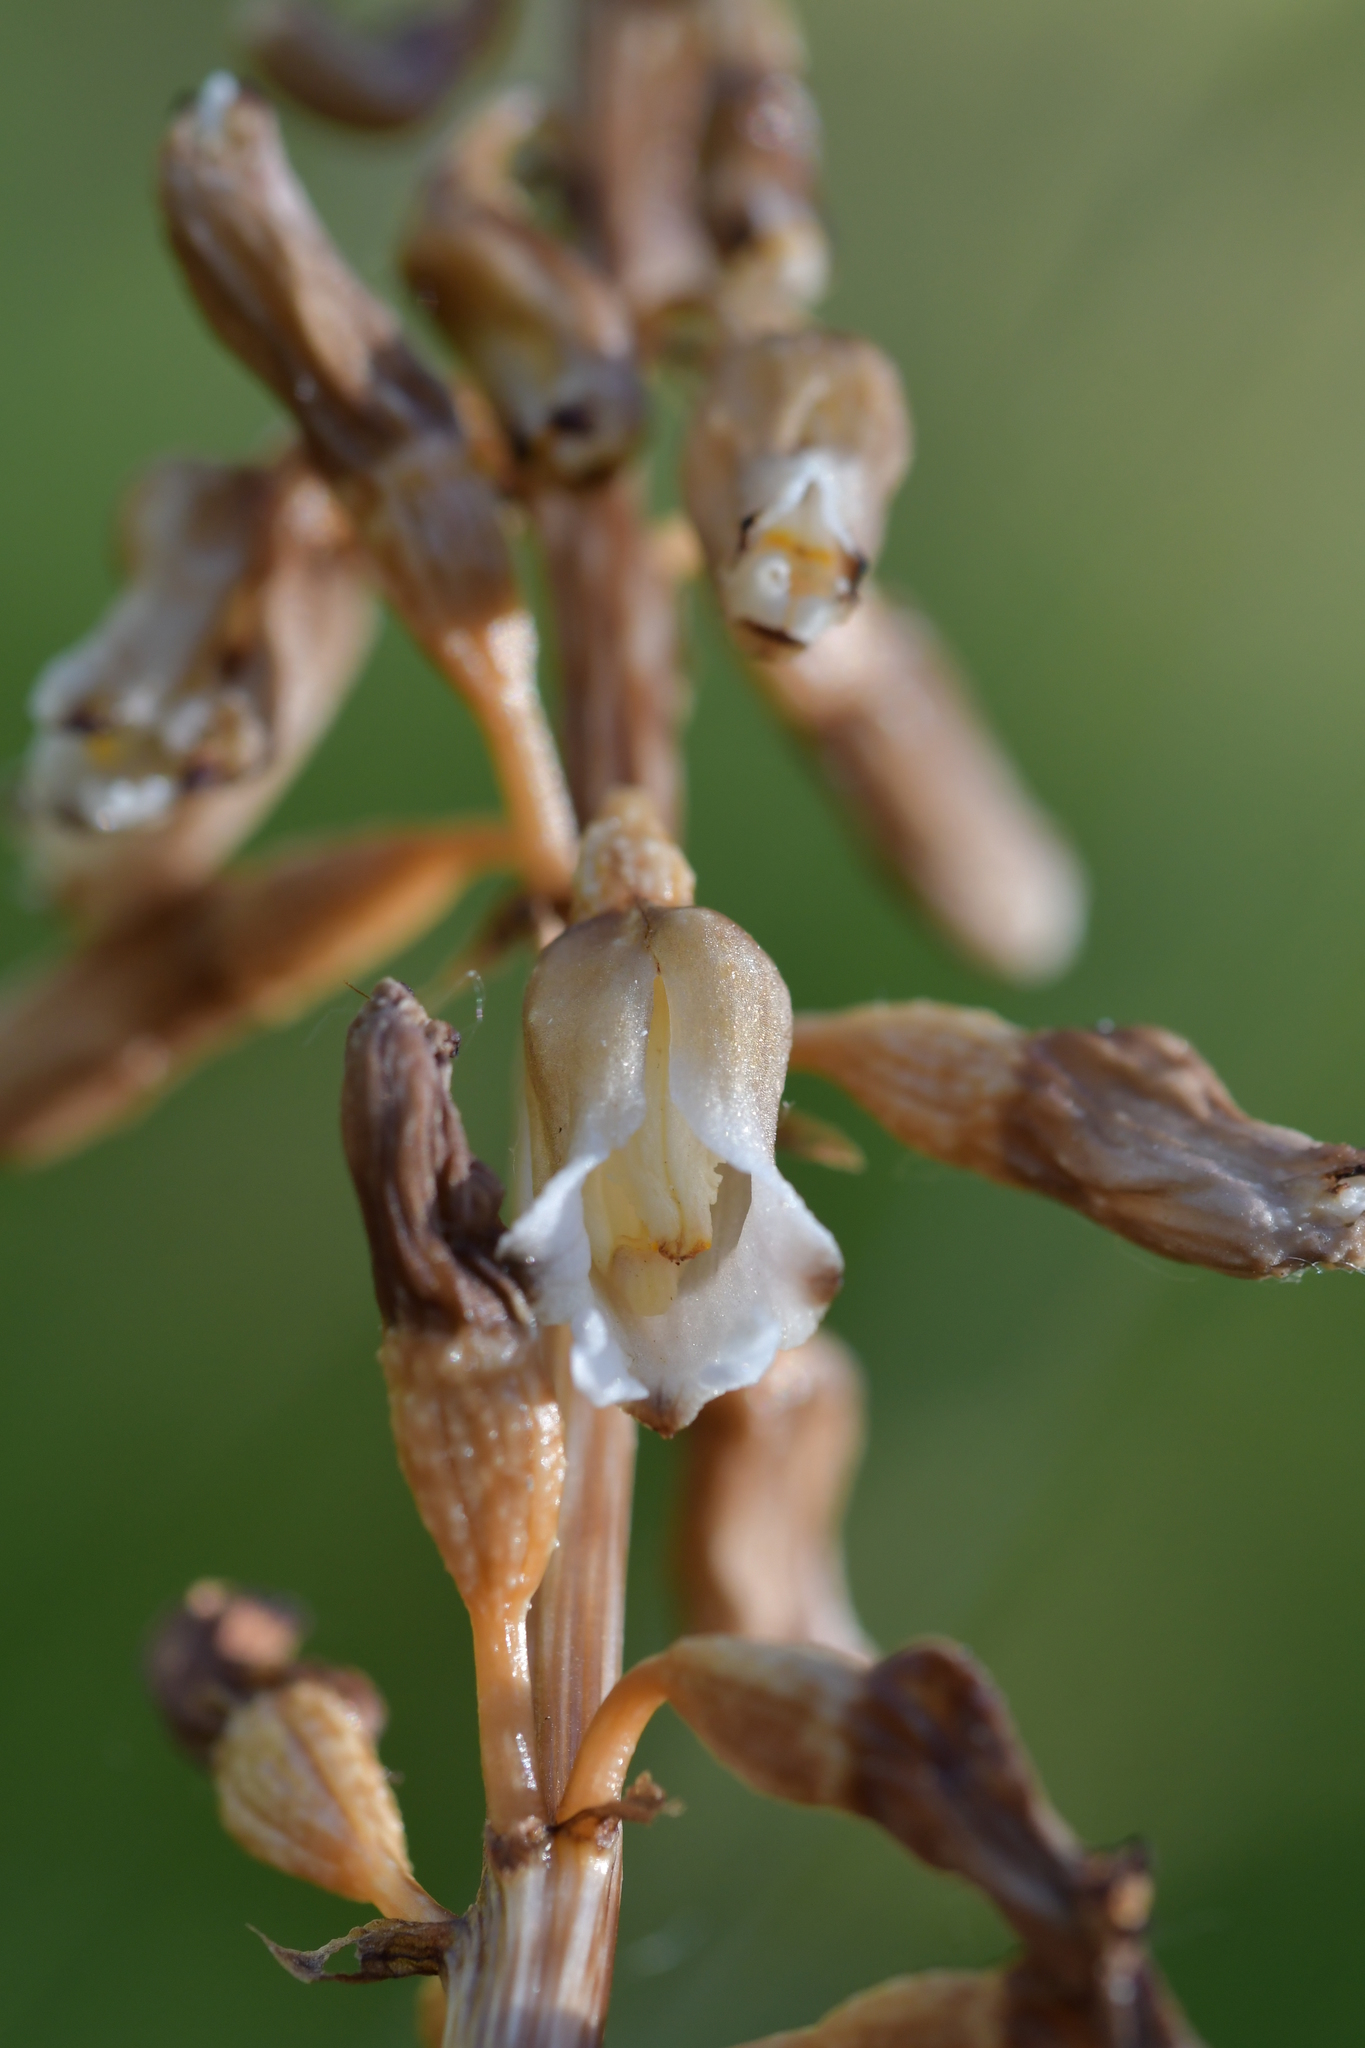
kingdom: Plantae
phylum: Tracheophyta
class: Liliopsida
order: Asparagales
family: Orchidaceae
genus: Gastrodia
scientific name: Gastrodia sesamoides
